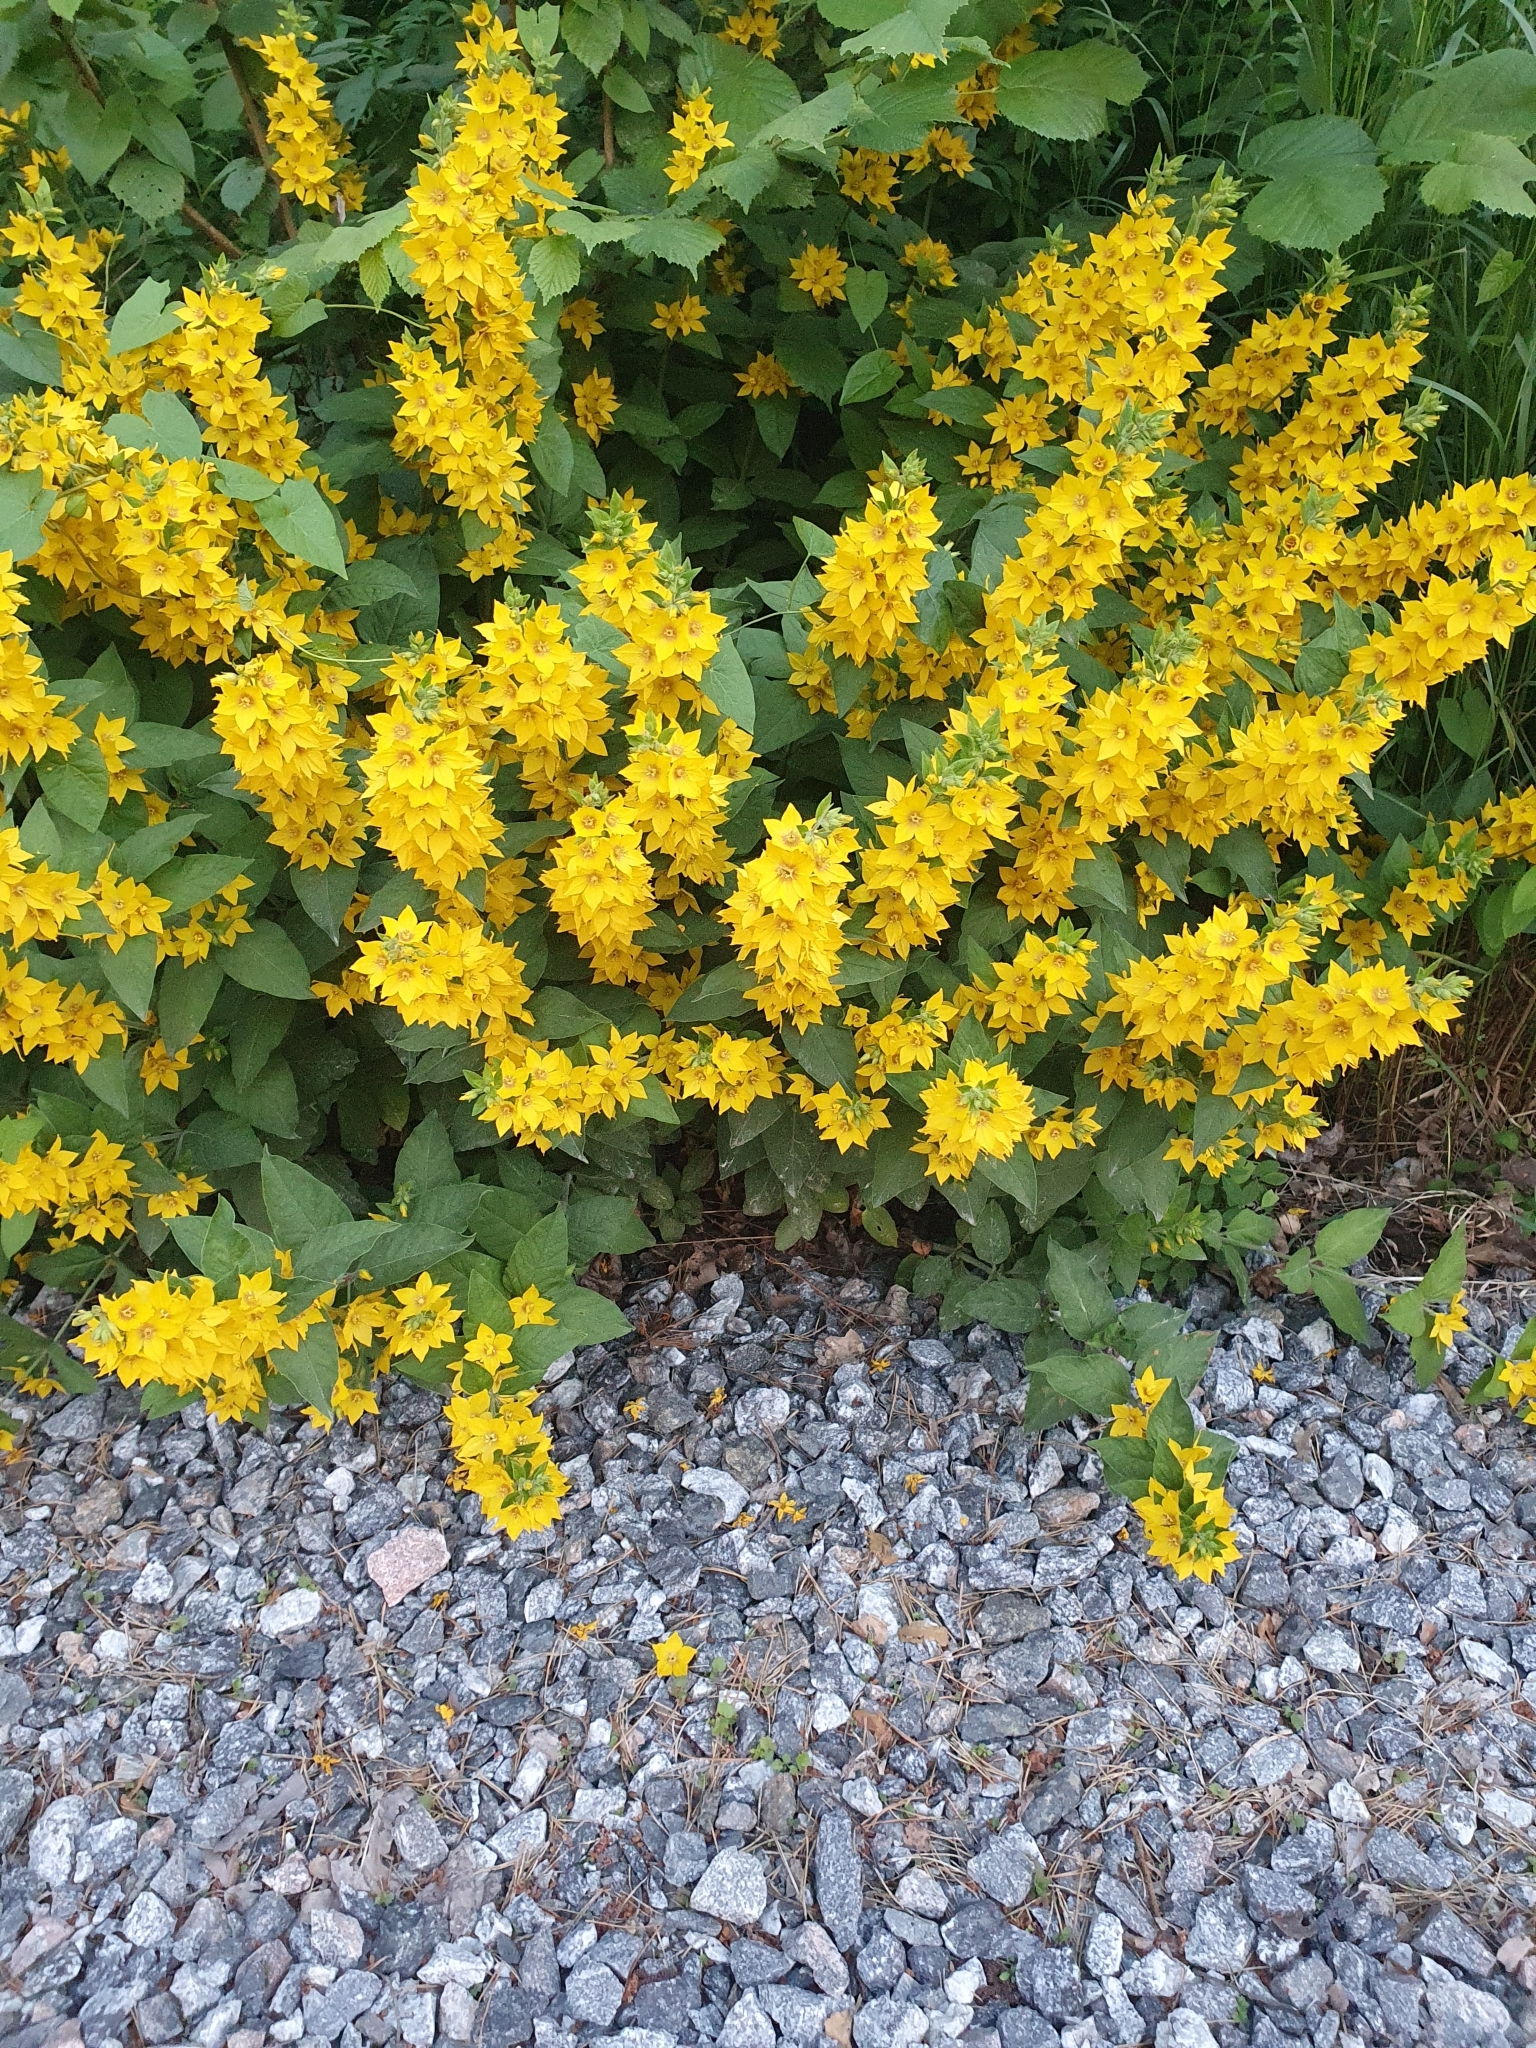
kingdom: Plantae
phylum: Tracheophyta
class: Magnoliopsida
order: Ericales
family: Primulaceae
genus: Lysimachia
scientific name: Lysimachia punctata
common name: Dotted loosestrife
